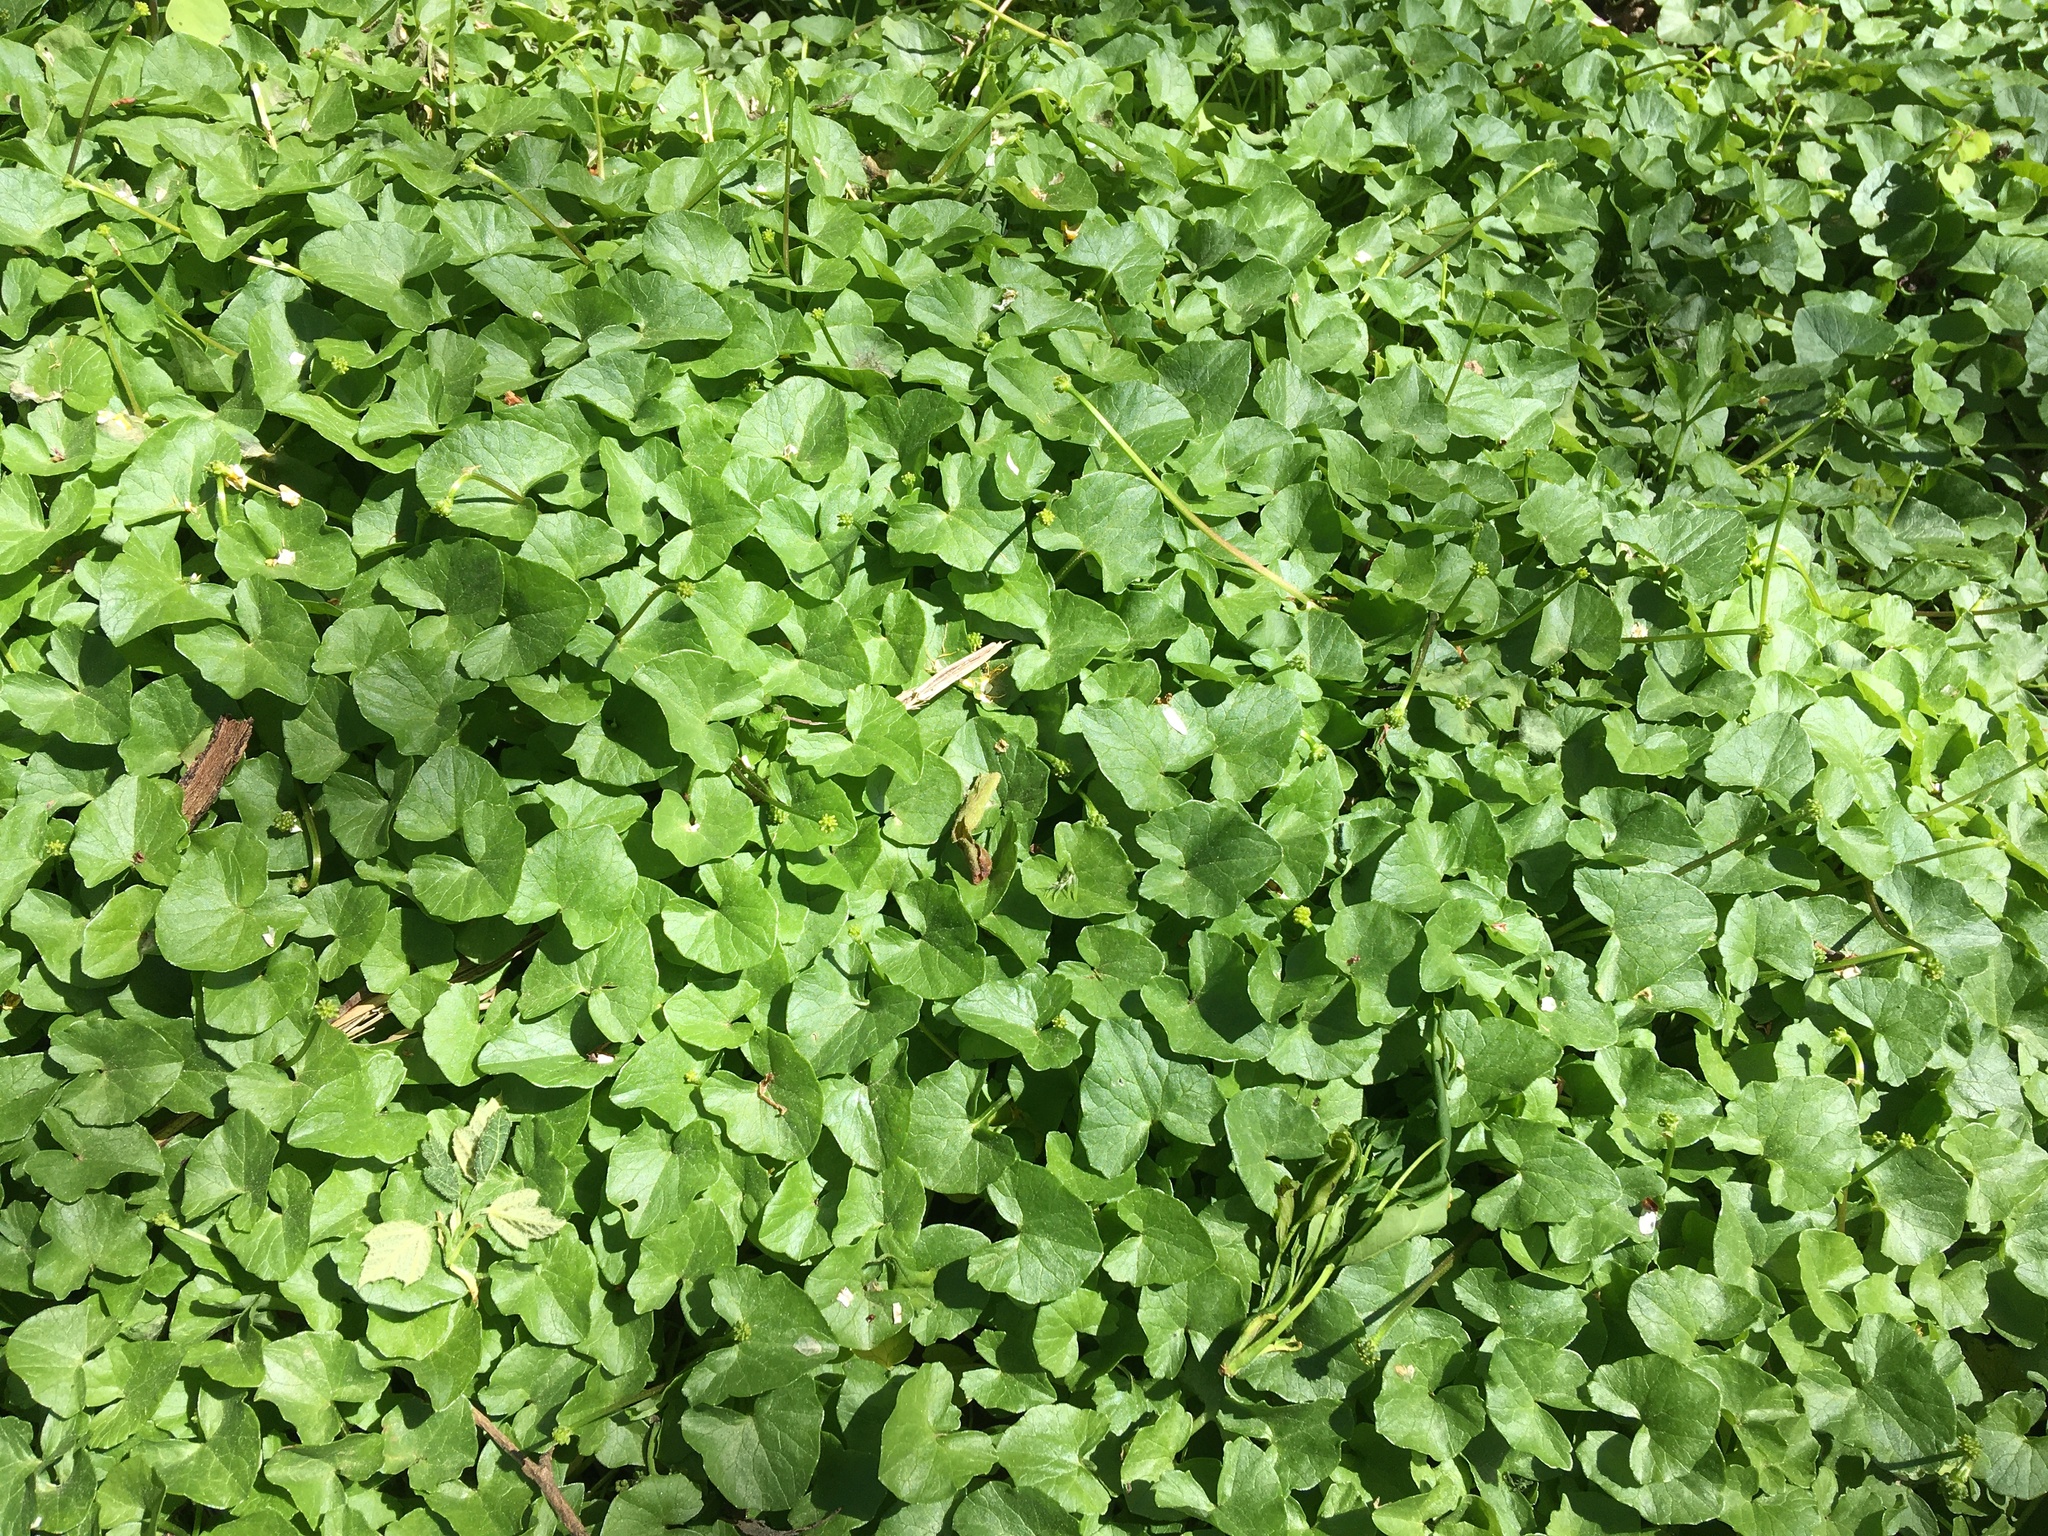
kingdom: Plantae
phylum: Tracheophyta
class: Magnoliopsida
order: Ranunculales
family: Ranunculaceae
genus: Ficaria
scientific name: Ficaria verna
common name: Lesser celandine
